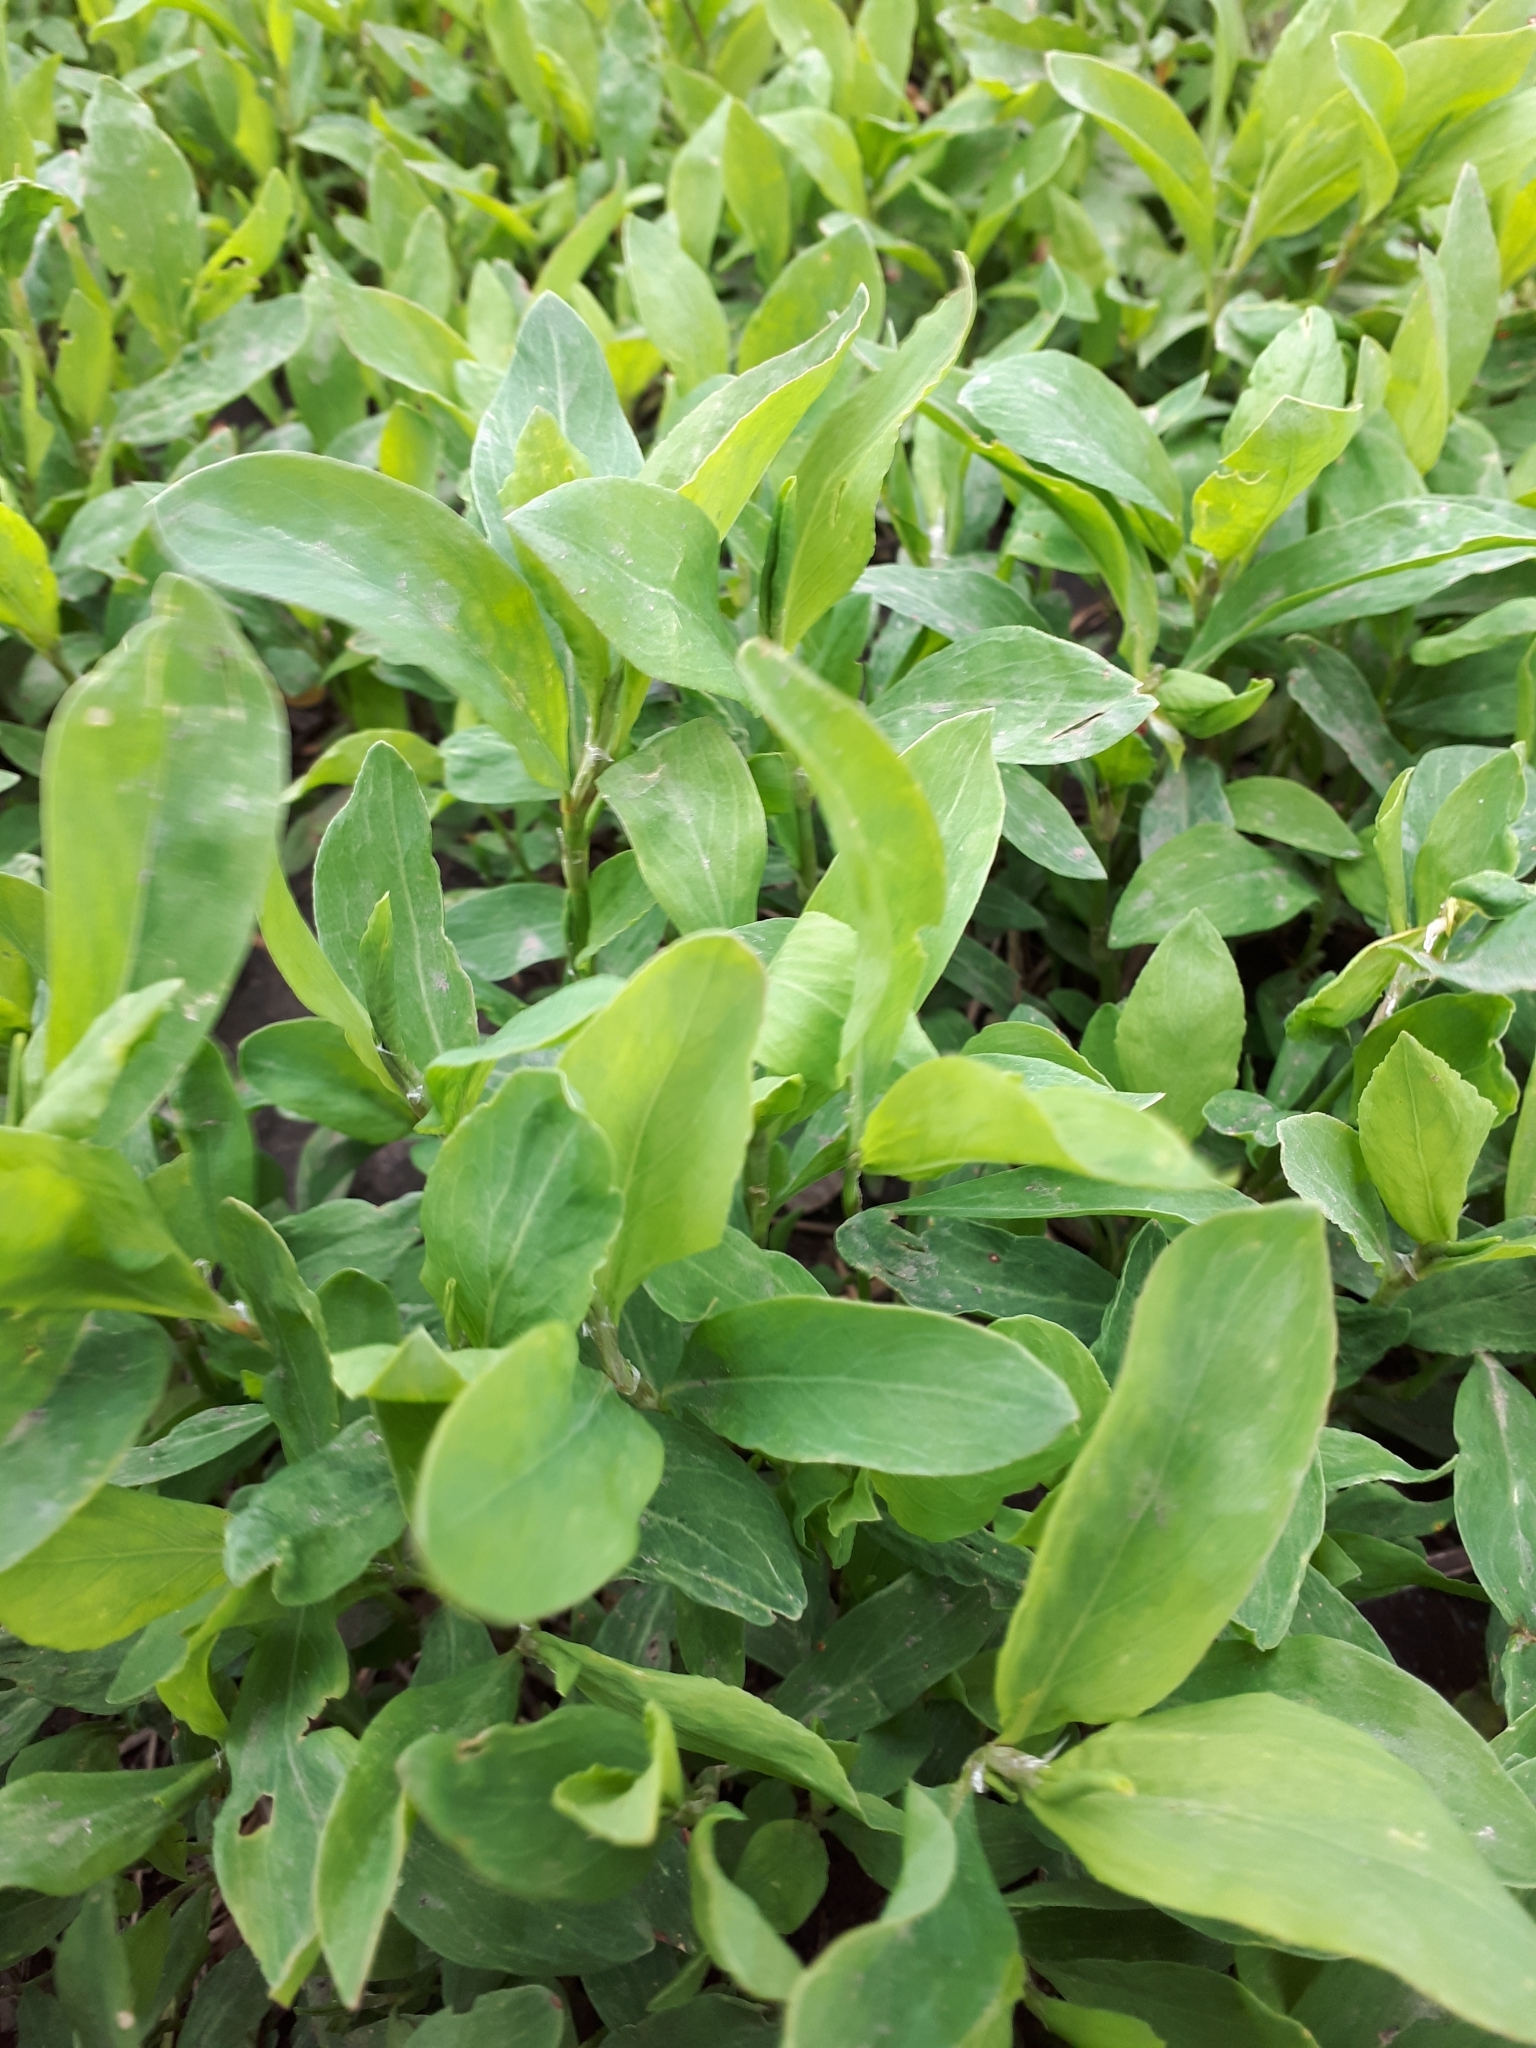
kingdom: Plantae
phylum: Tracheophyta
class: Magnoliopsida
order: Caryophyllales
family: Polygonaceae
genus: Polygonum
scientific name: Polygonum
